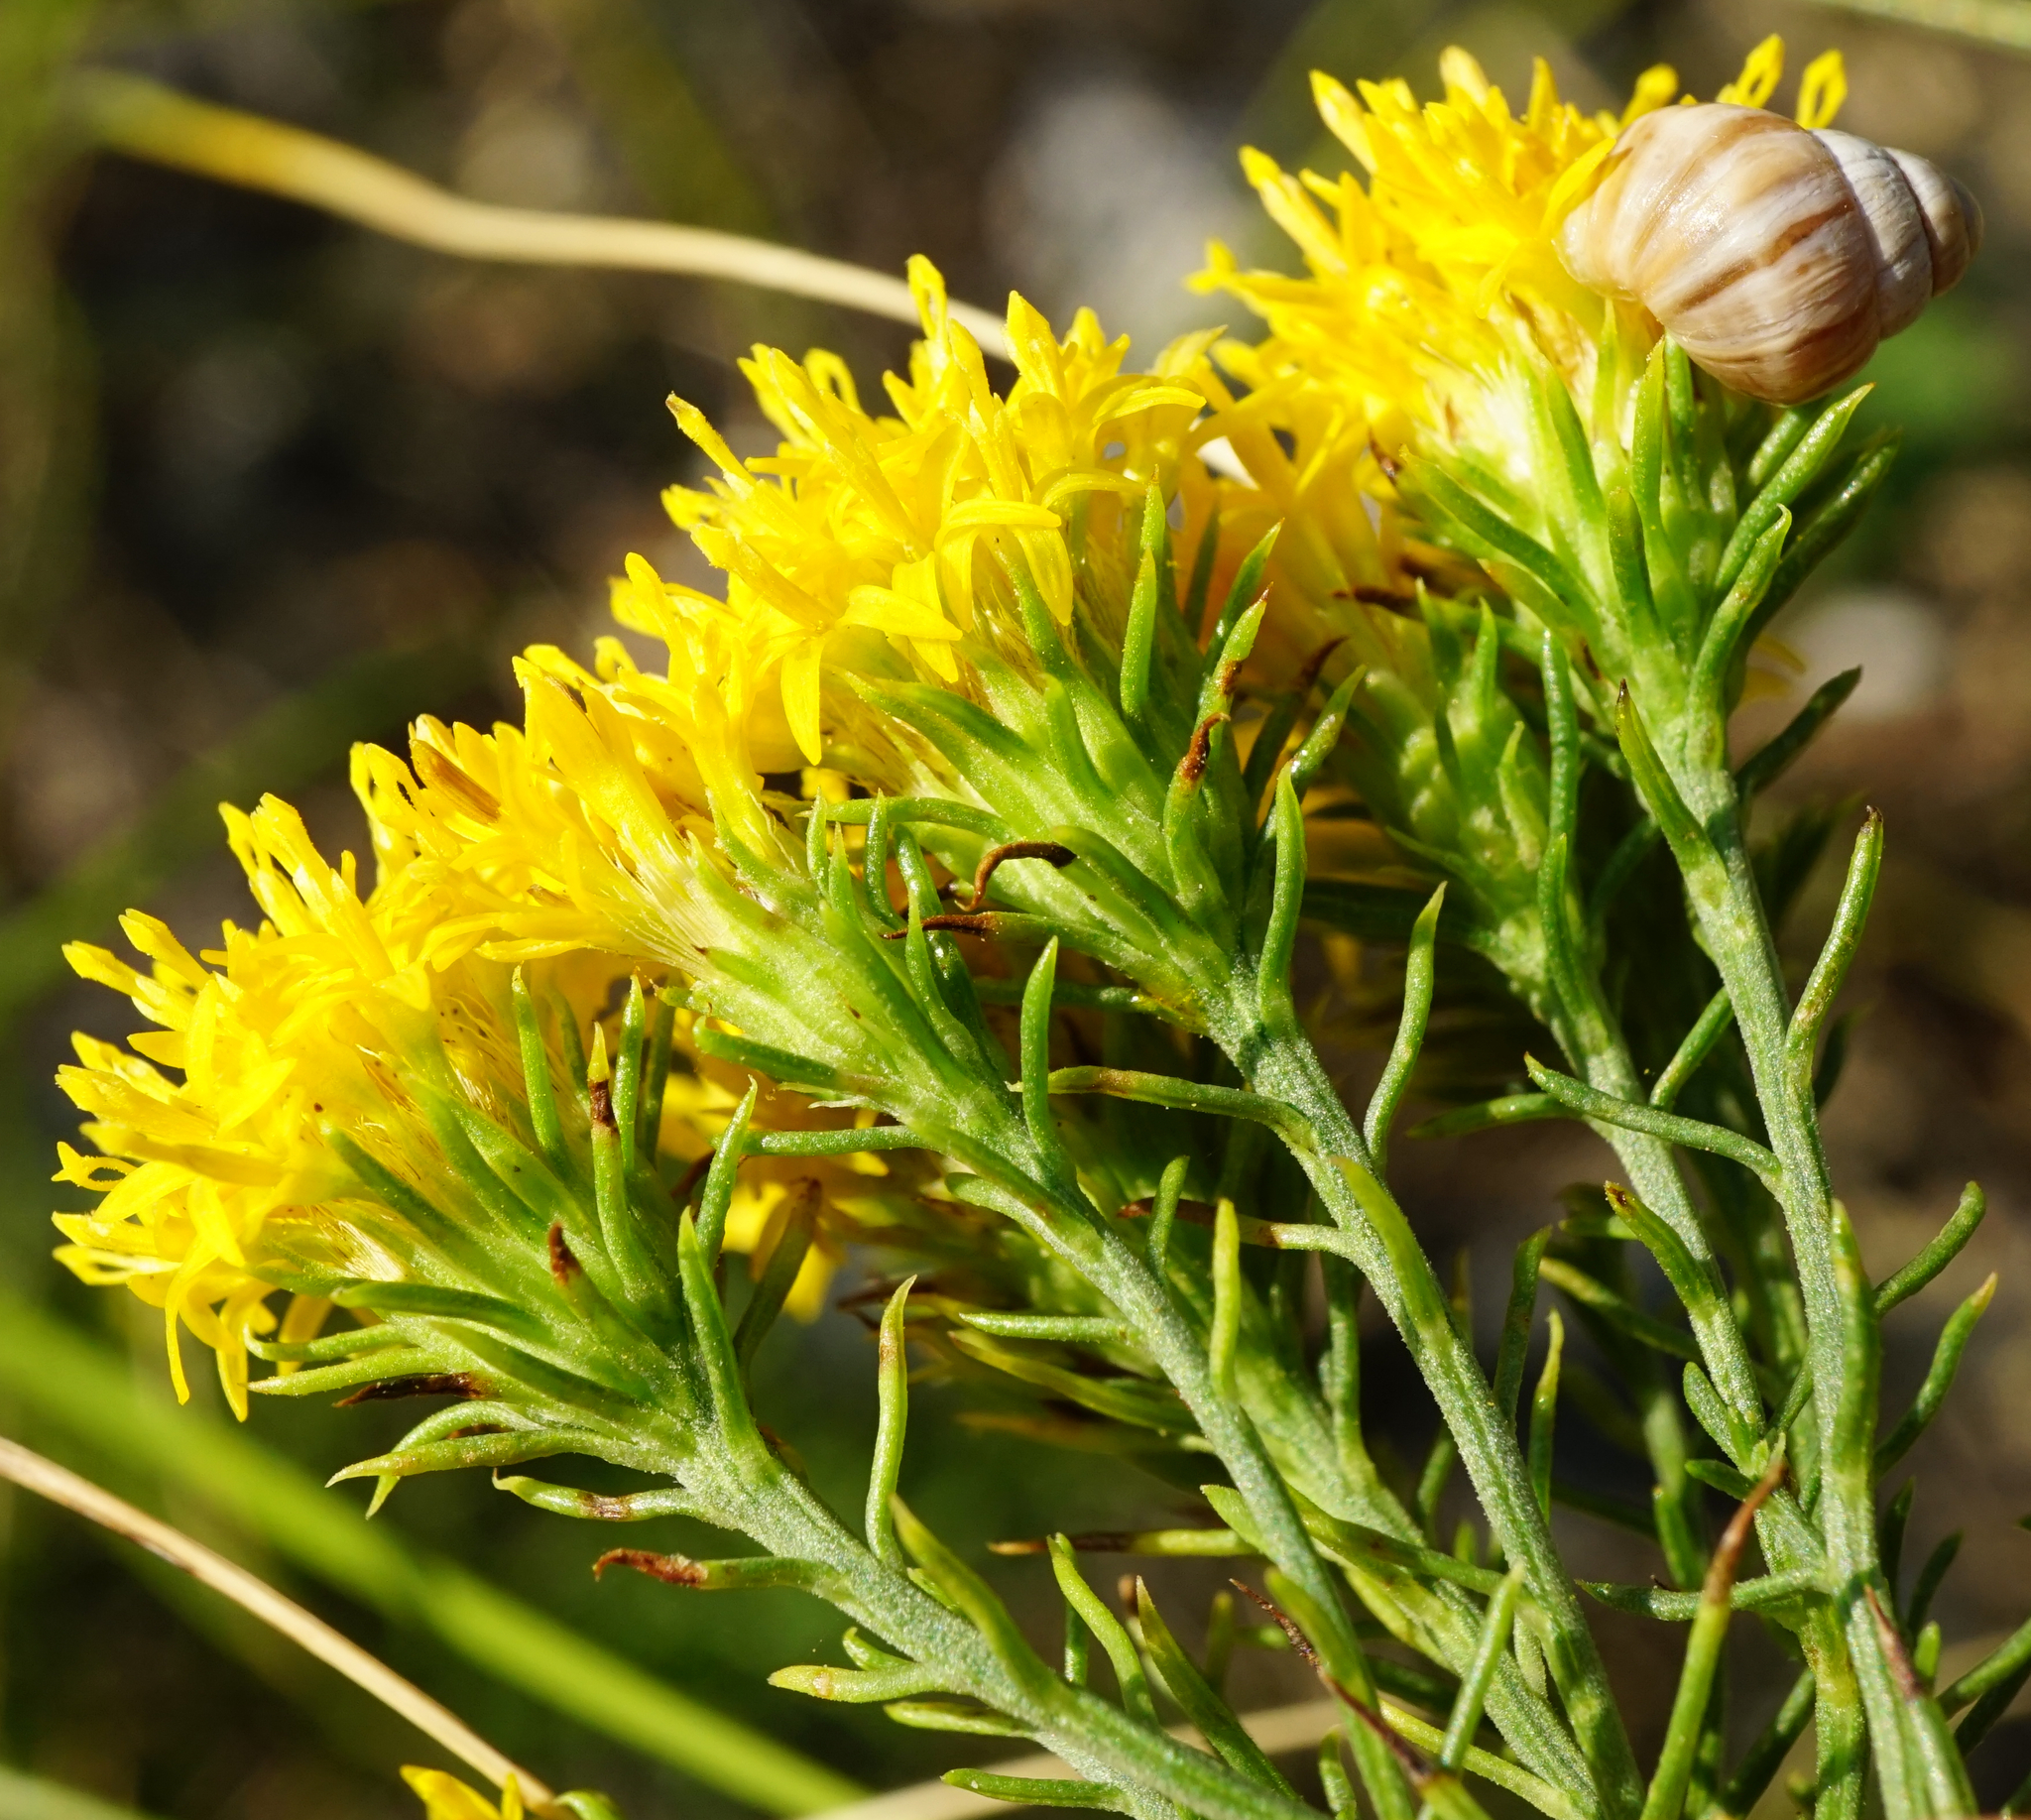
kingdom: Plantae
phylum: Tracheophyta
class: Magnoliopsida
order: Asterales
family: Asteraceae
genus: Galatella
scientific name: Galatella linosyris
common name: Goldilocks aster
